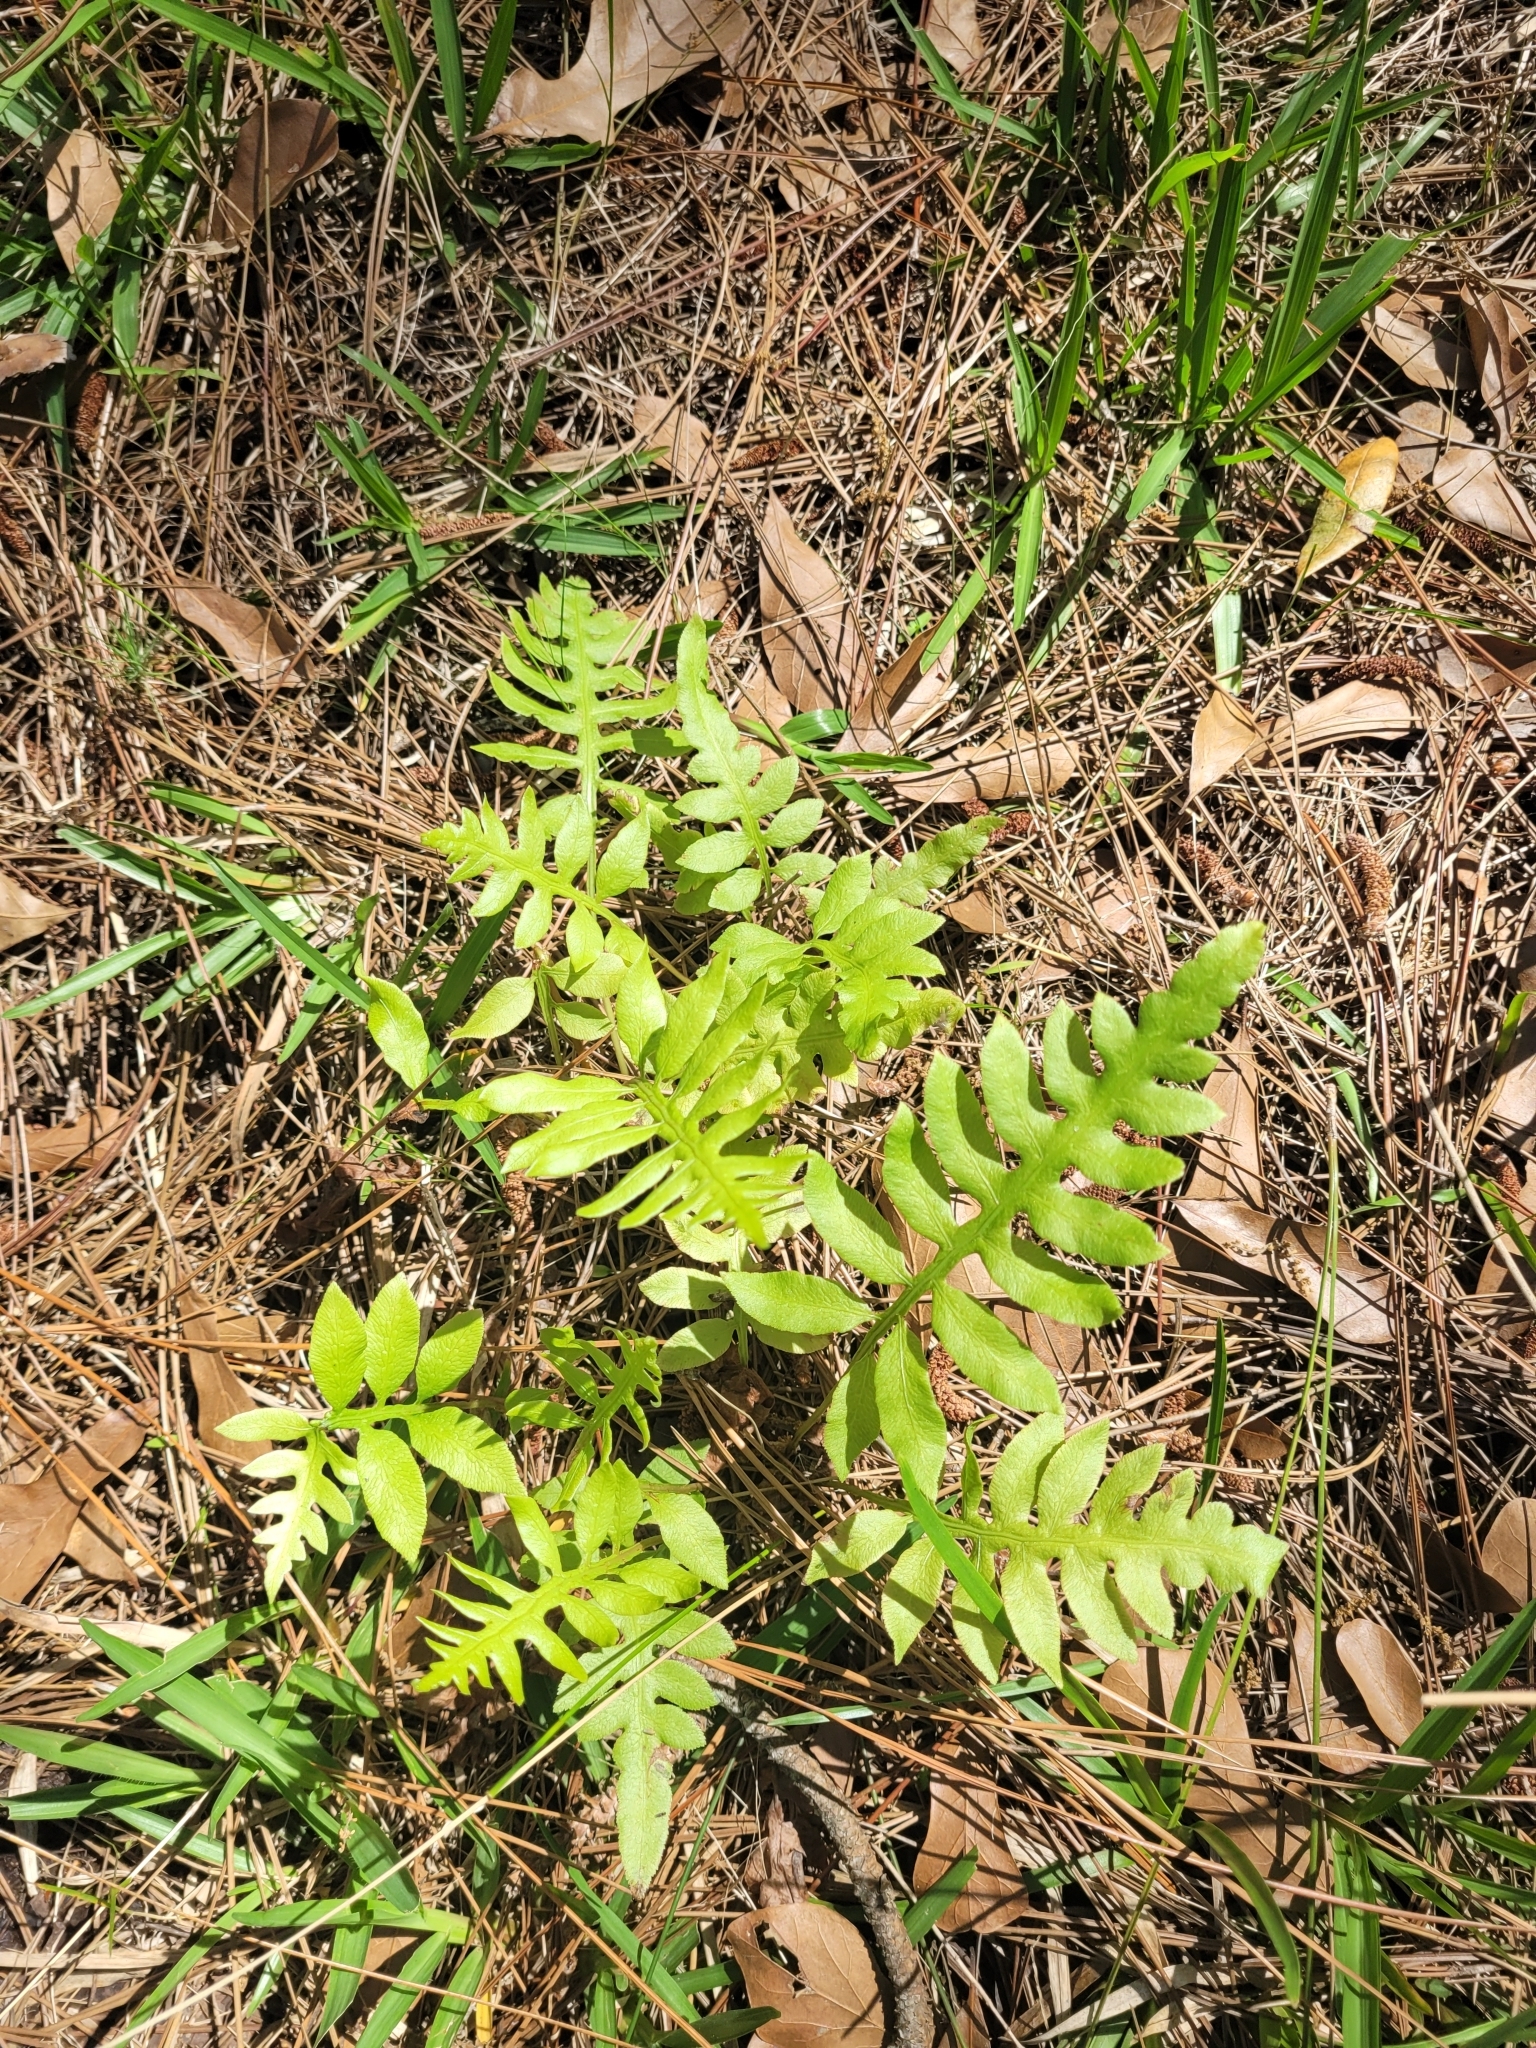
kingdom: Plantae
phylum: Tracheophyta
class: Polypodiopsida
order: Polypodiales
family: Blechnaceae
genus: Lorinseria
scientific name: Lorinseria areolata
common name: Dwarf chain fern
